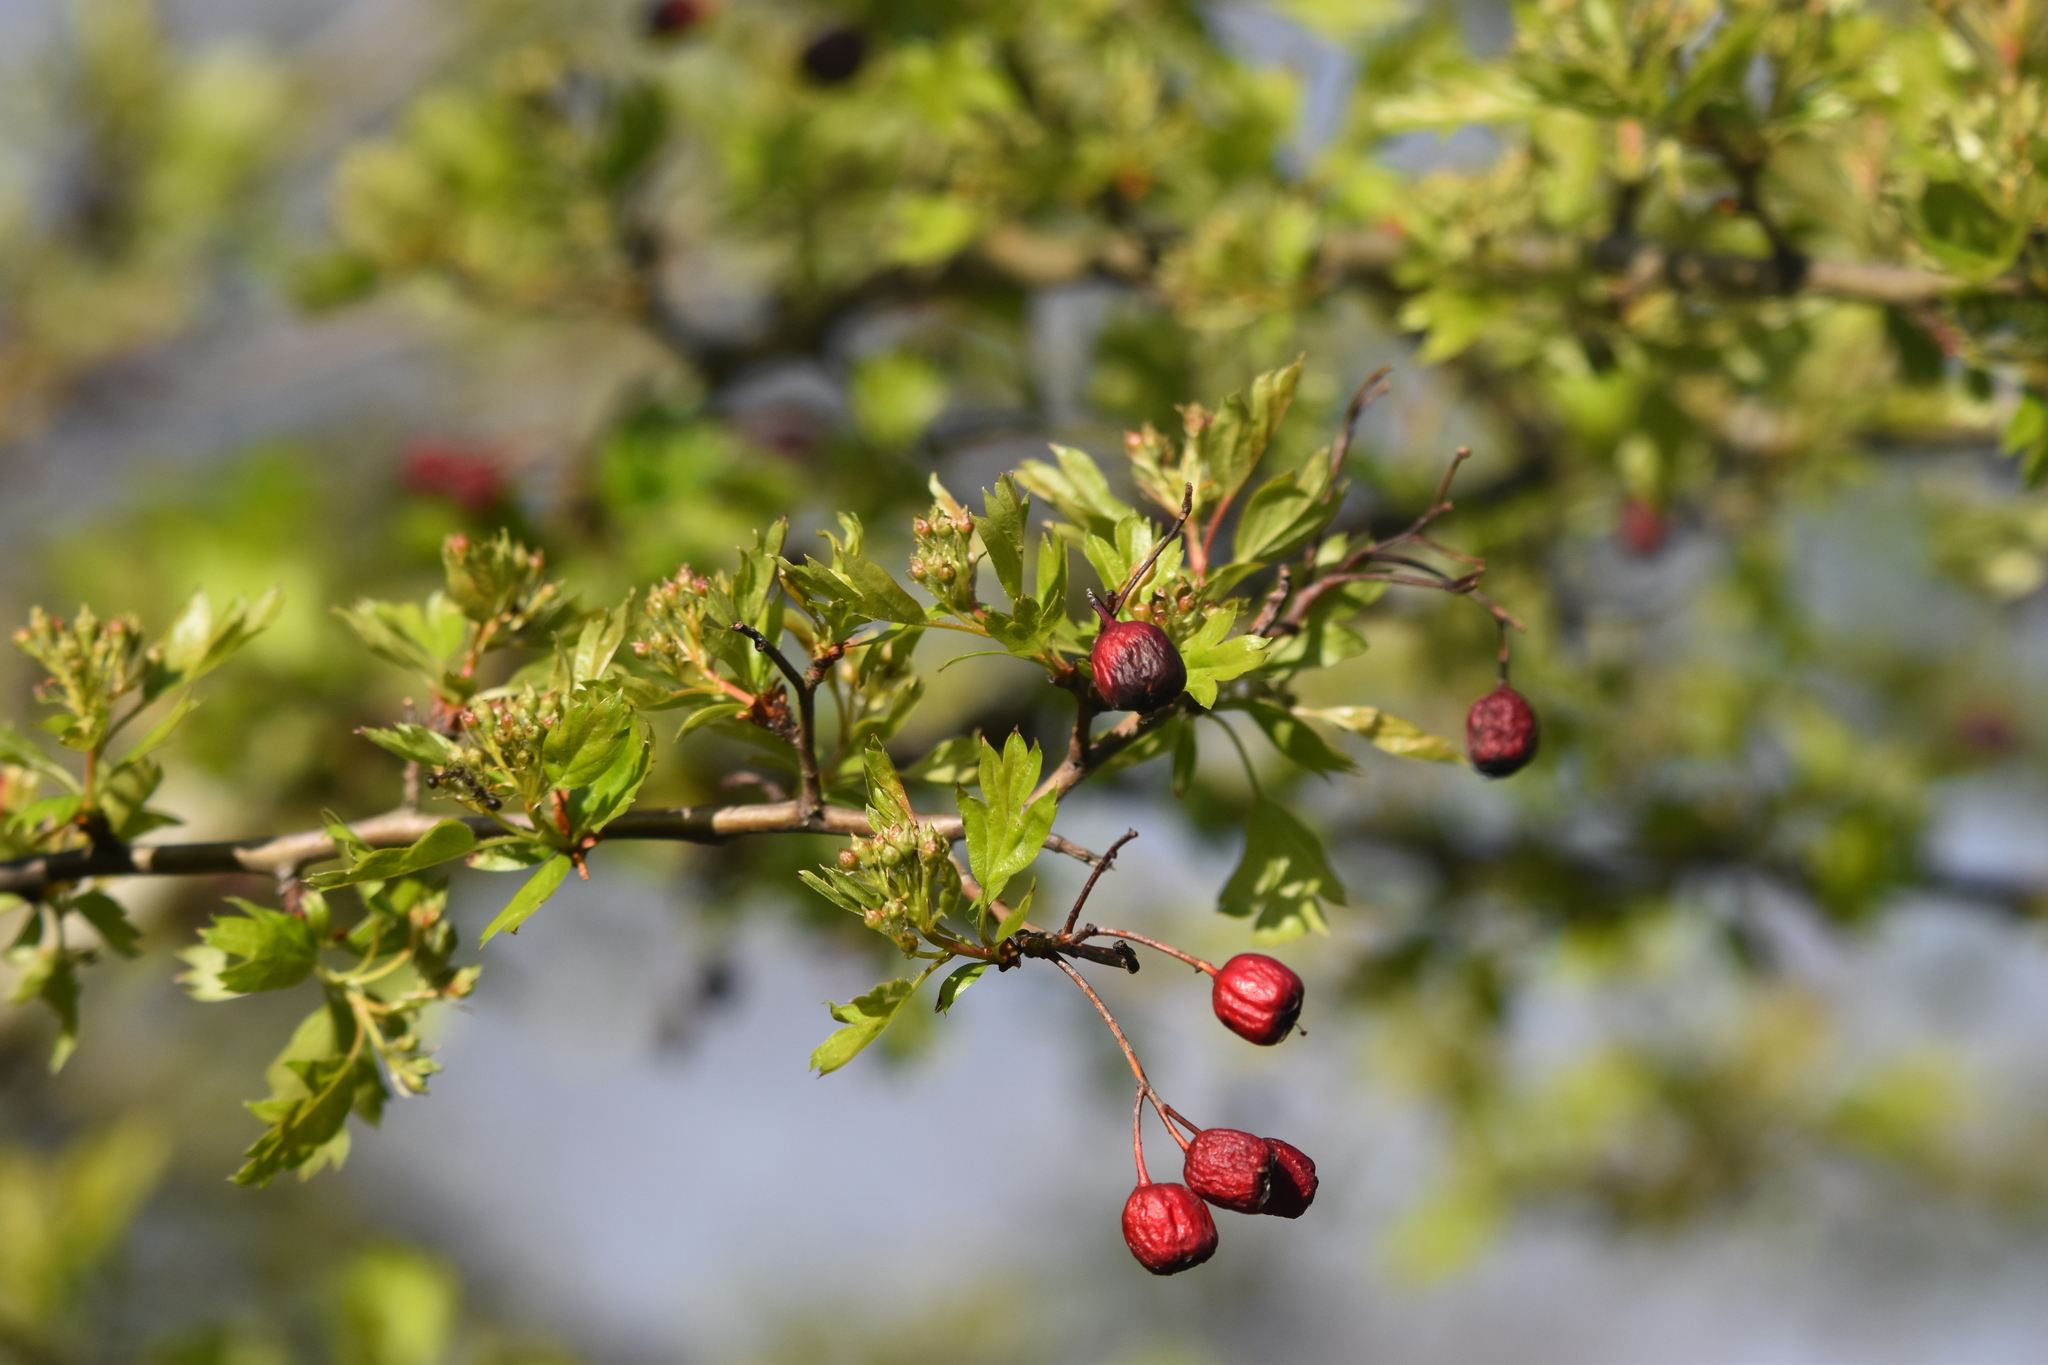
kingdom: Plantae
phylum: Tracheophyta
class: Magnoliopsida
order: Rosales
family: Rosaceae
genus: Crataegus
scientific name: Crataegus monogyna
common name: Hawthorn
